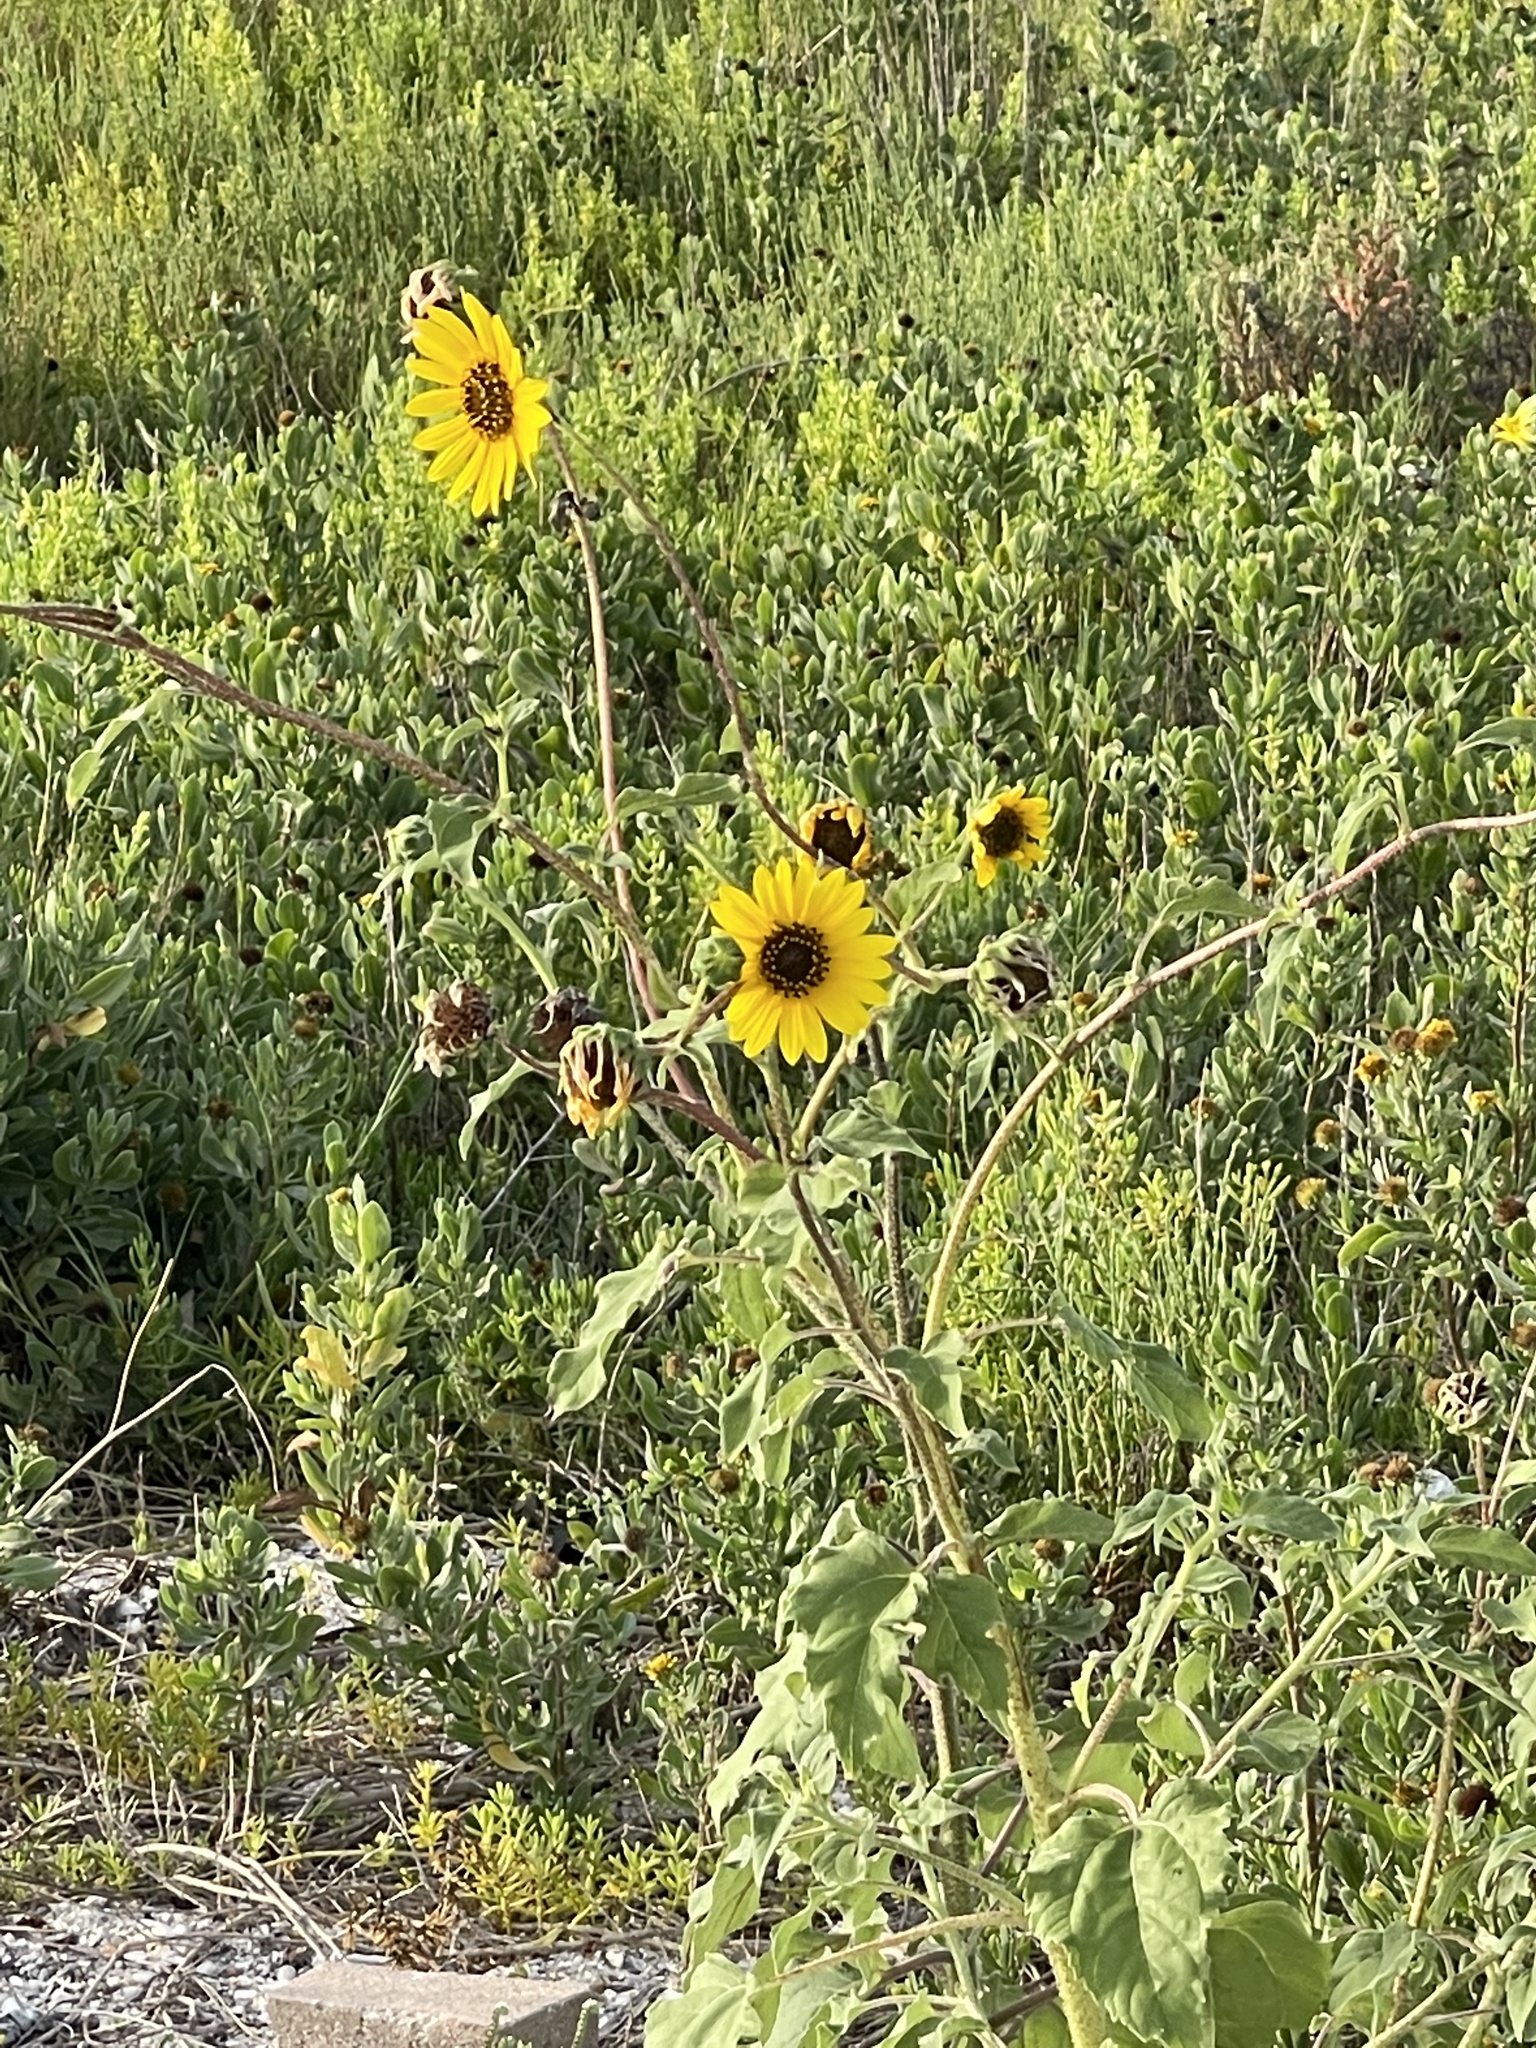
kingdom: Plantae
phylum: Tracheophyta
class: Magnoliopsida
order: Asterales
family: Asteraceae
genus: Helianthus
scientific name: Helianthus annuus
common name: Sunflower
